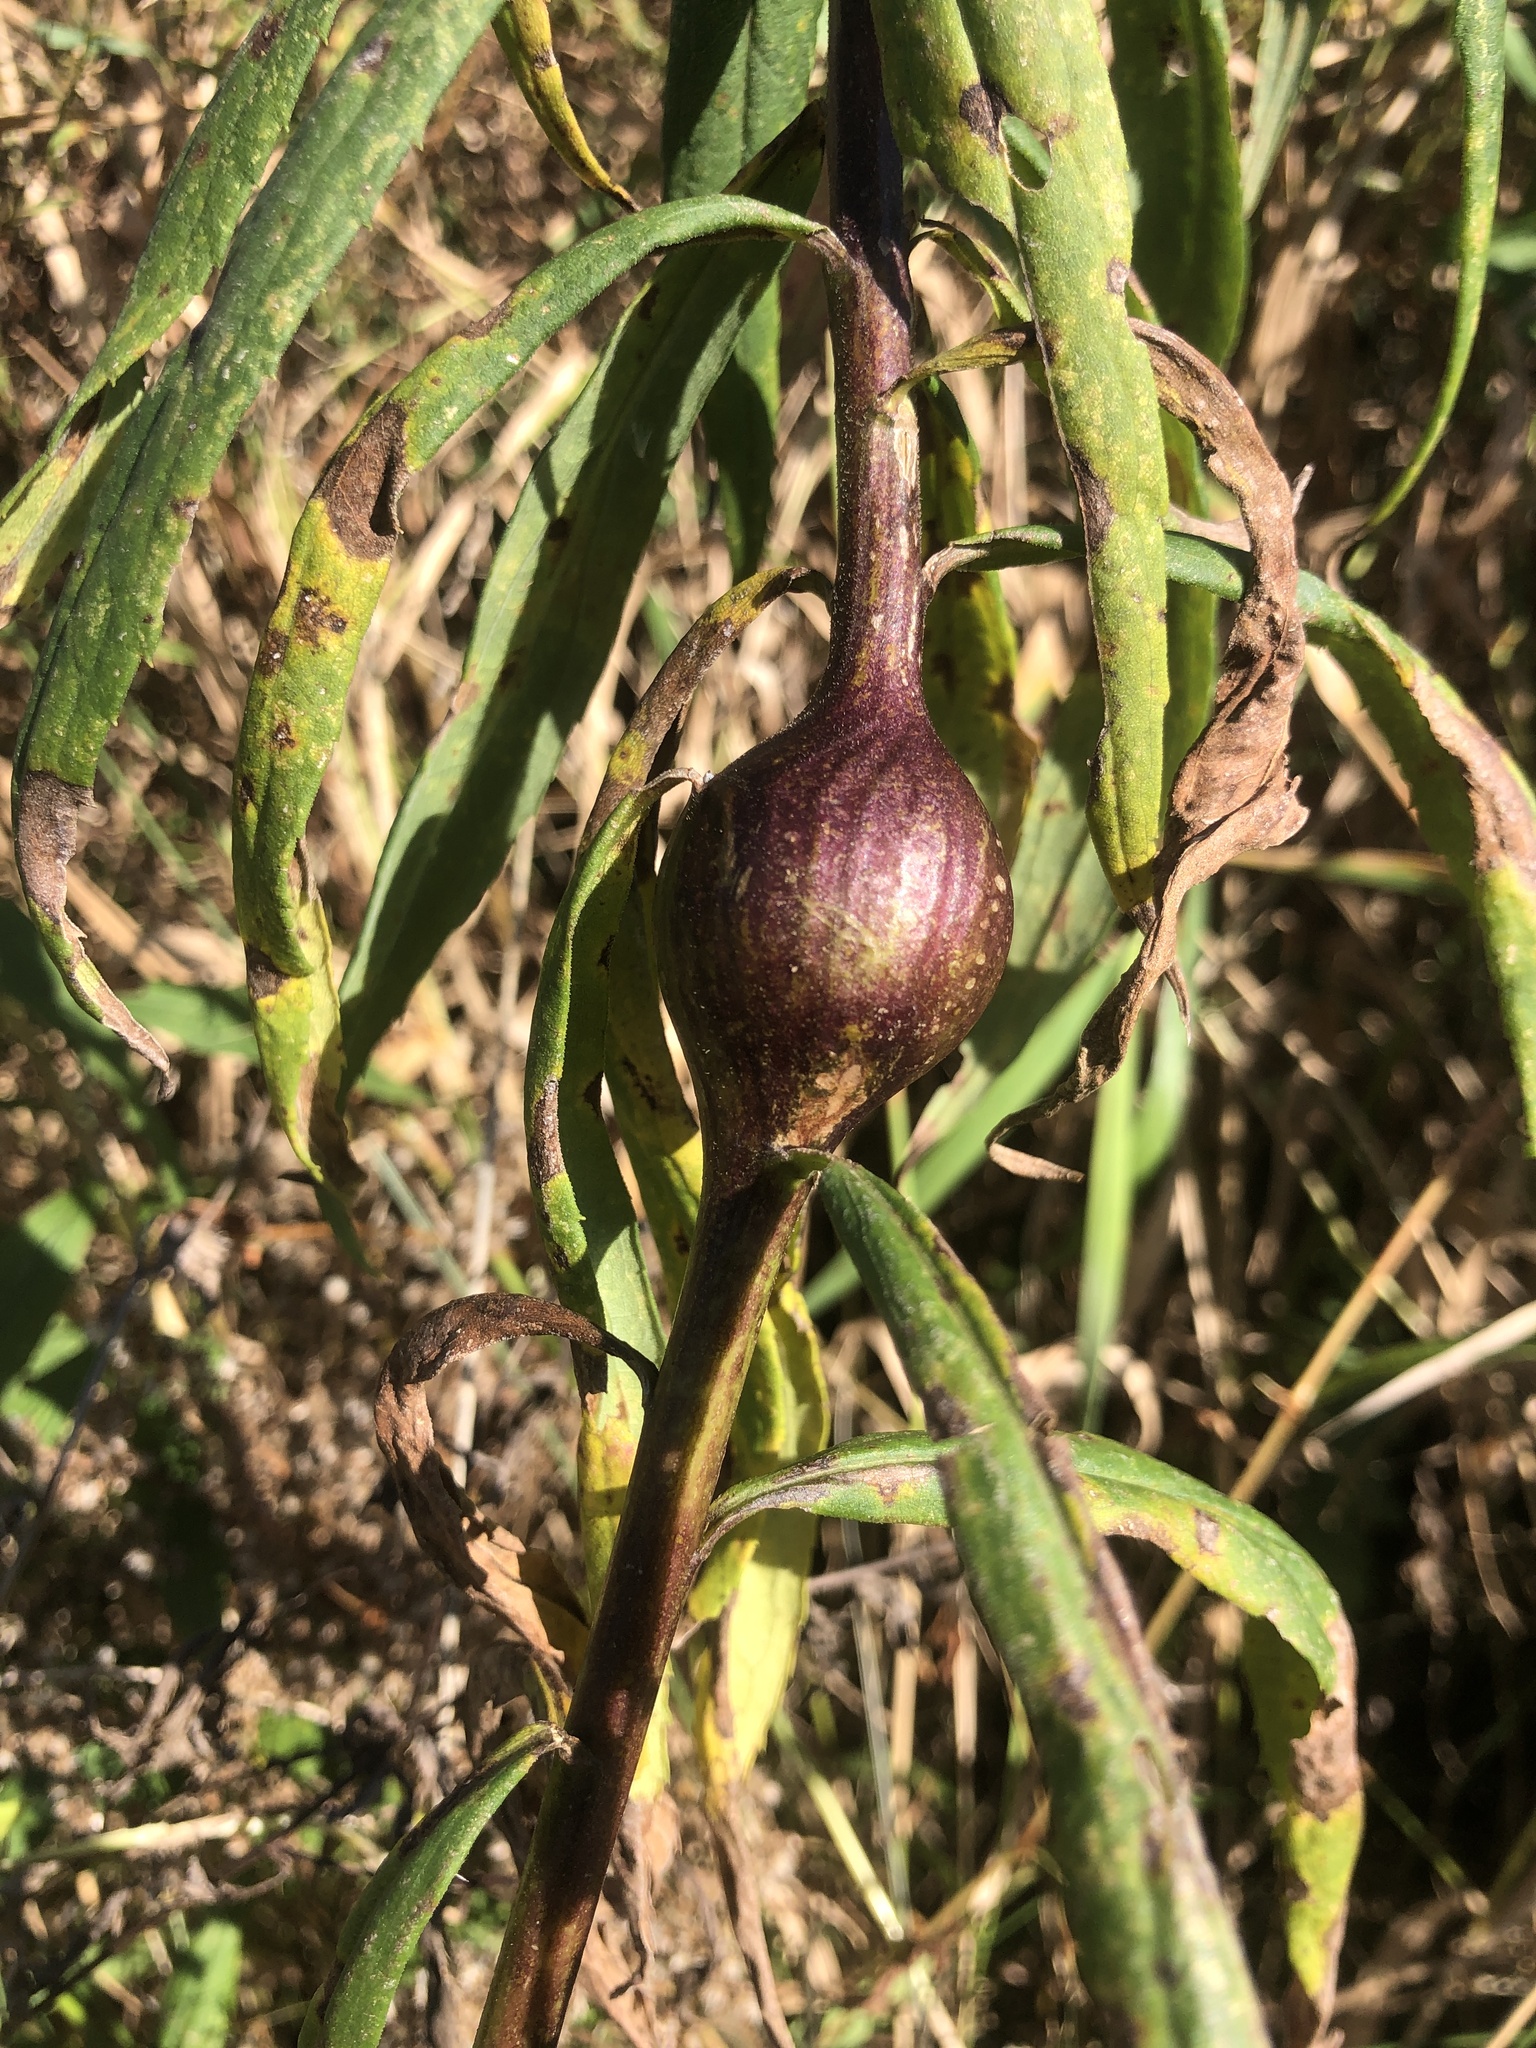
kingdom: Animalia
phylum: Arthropoda
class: Insecta
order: Diptera
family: Tephritidae
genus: Eurosta
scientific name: Eurosta solidaginis
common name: Goldenrod gall fly
